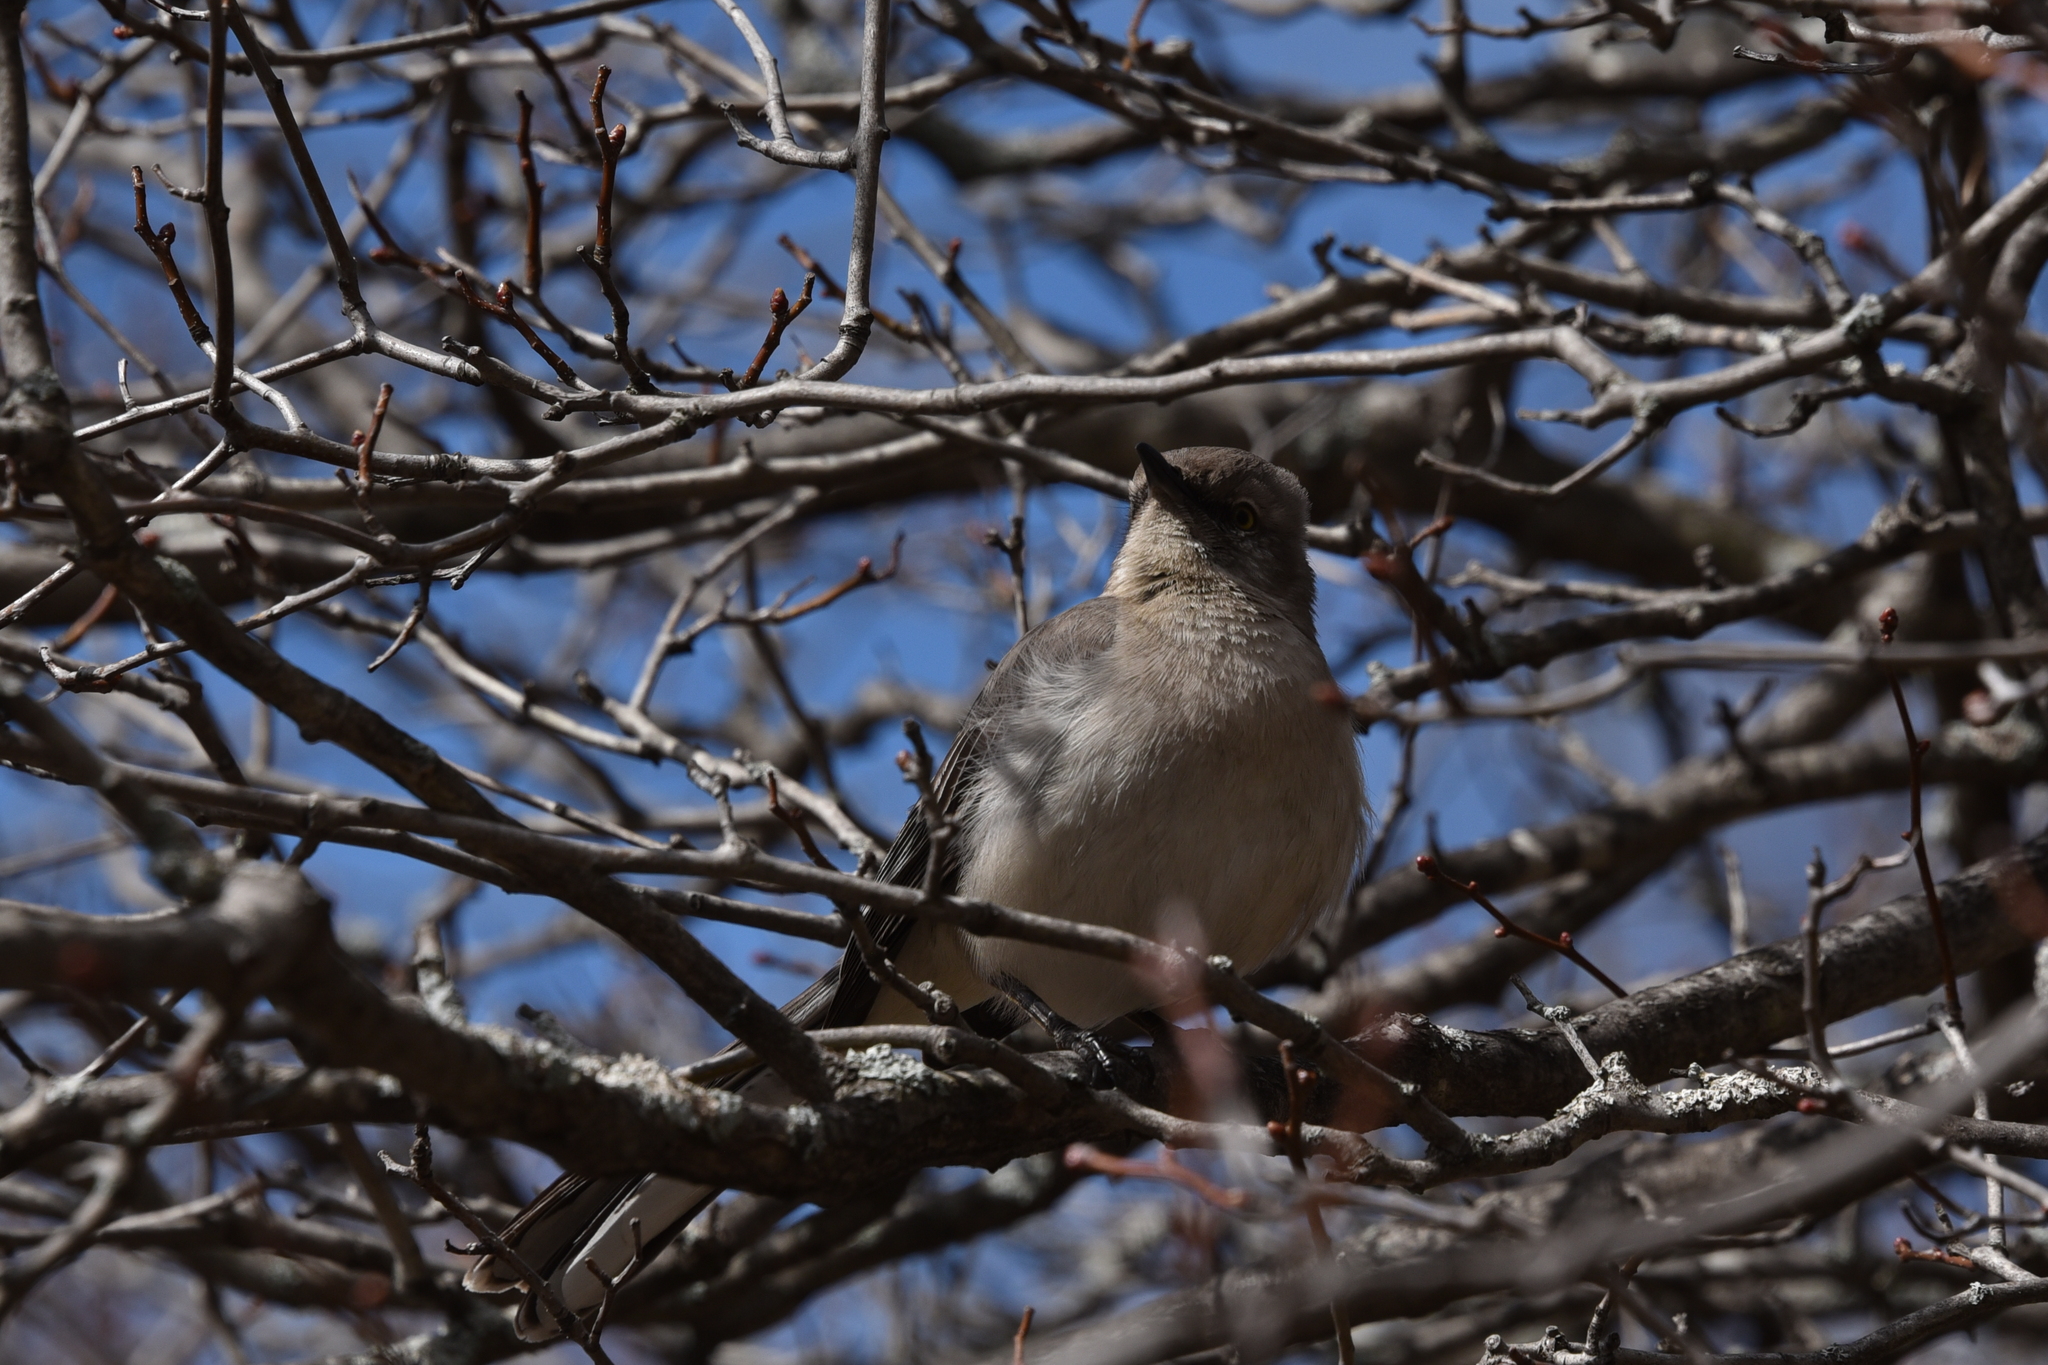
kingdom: Animalia
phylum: Chordata
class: Aves
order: Passeriformes
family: Mimidae
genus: Mimus
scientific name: Mimus polyglottos
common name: Northern mockingbird
